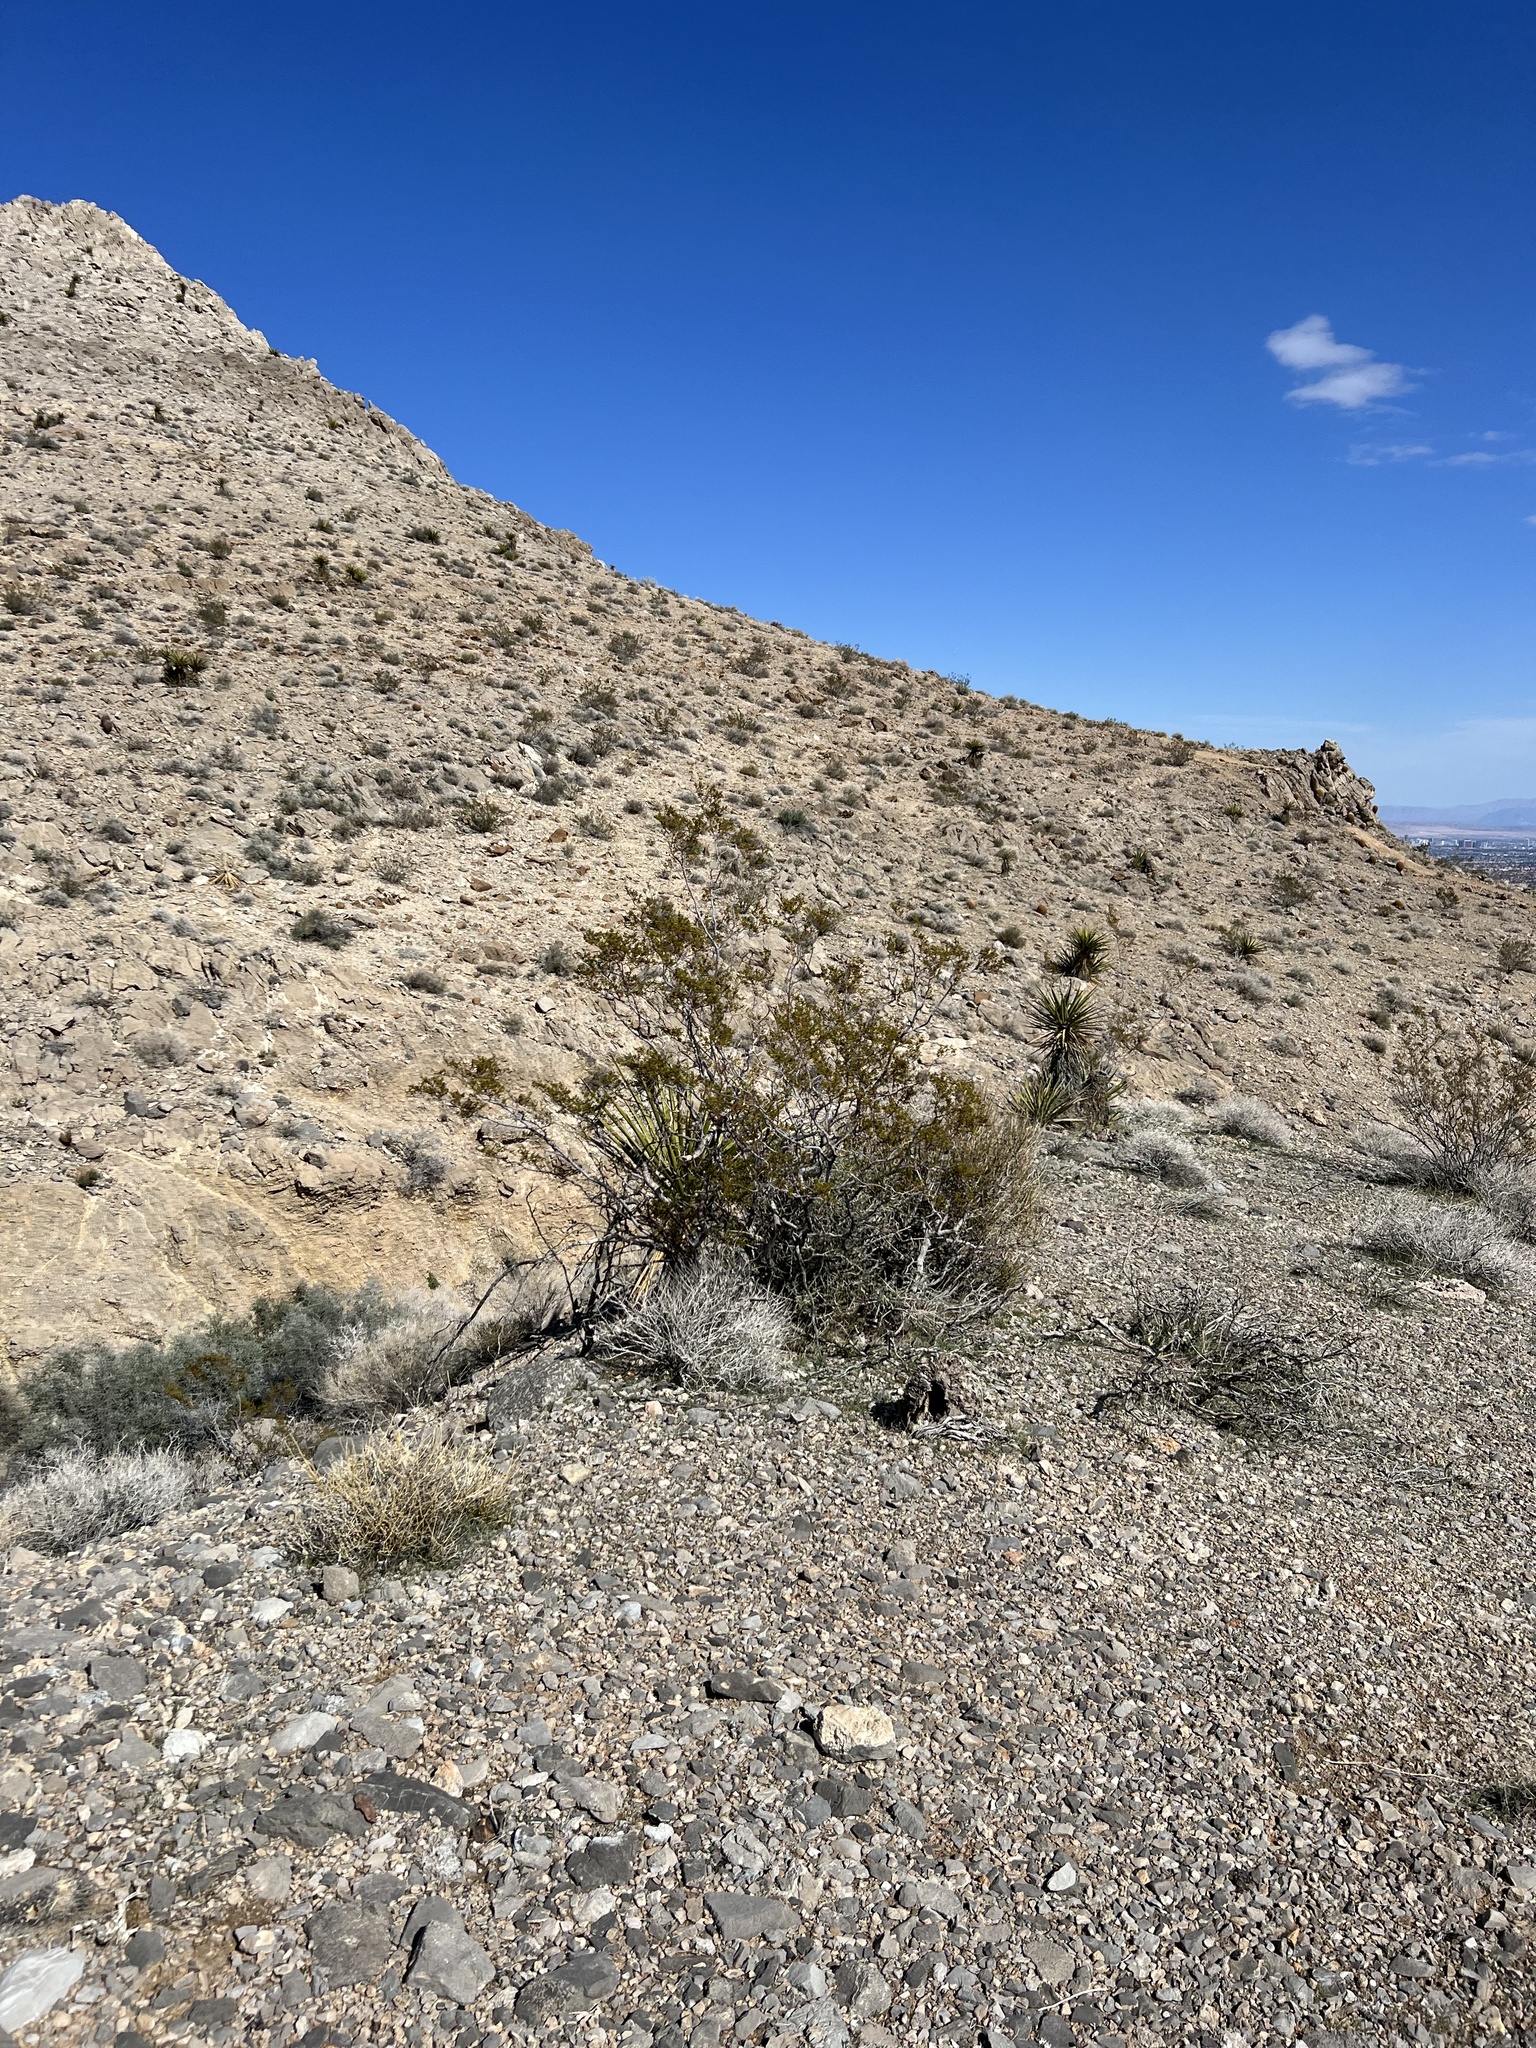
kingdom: Plantae
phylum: Tracheophyta
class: Magnoliopsida
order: Zygophyllales
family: Zygophyllaceae
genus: Larrea
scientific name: Larrea tridentata
